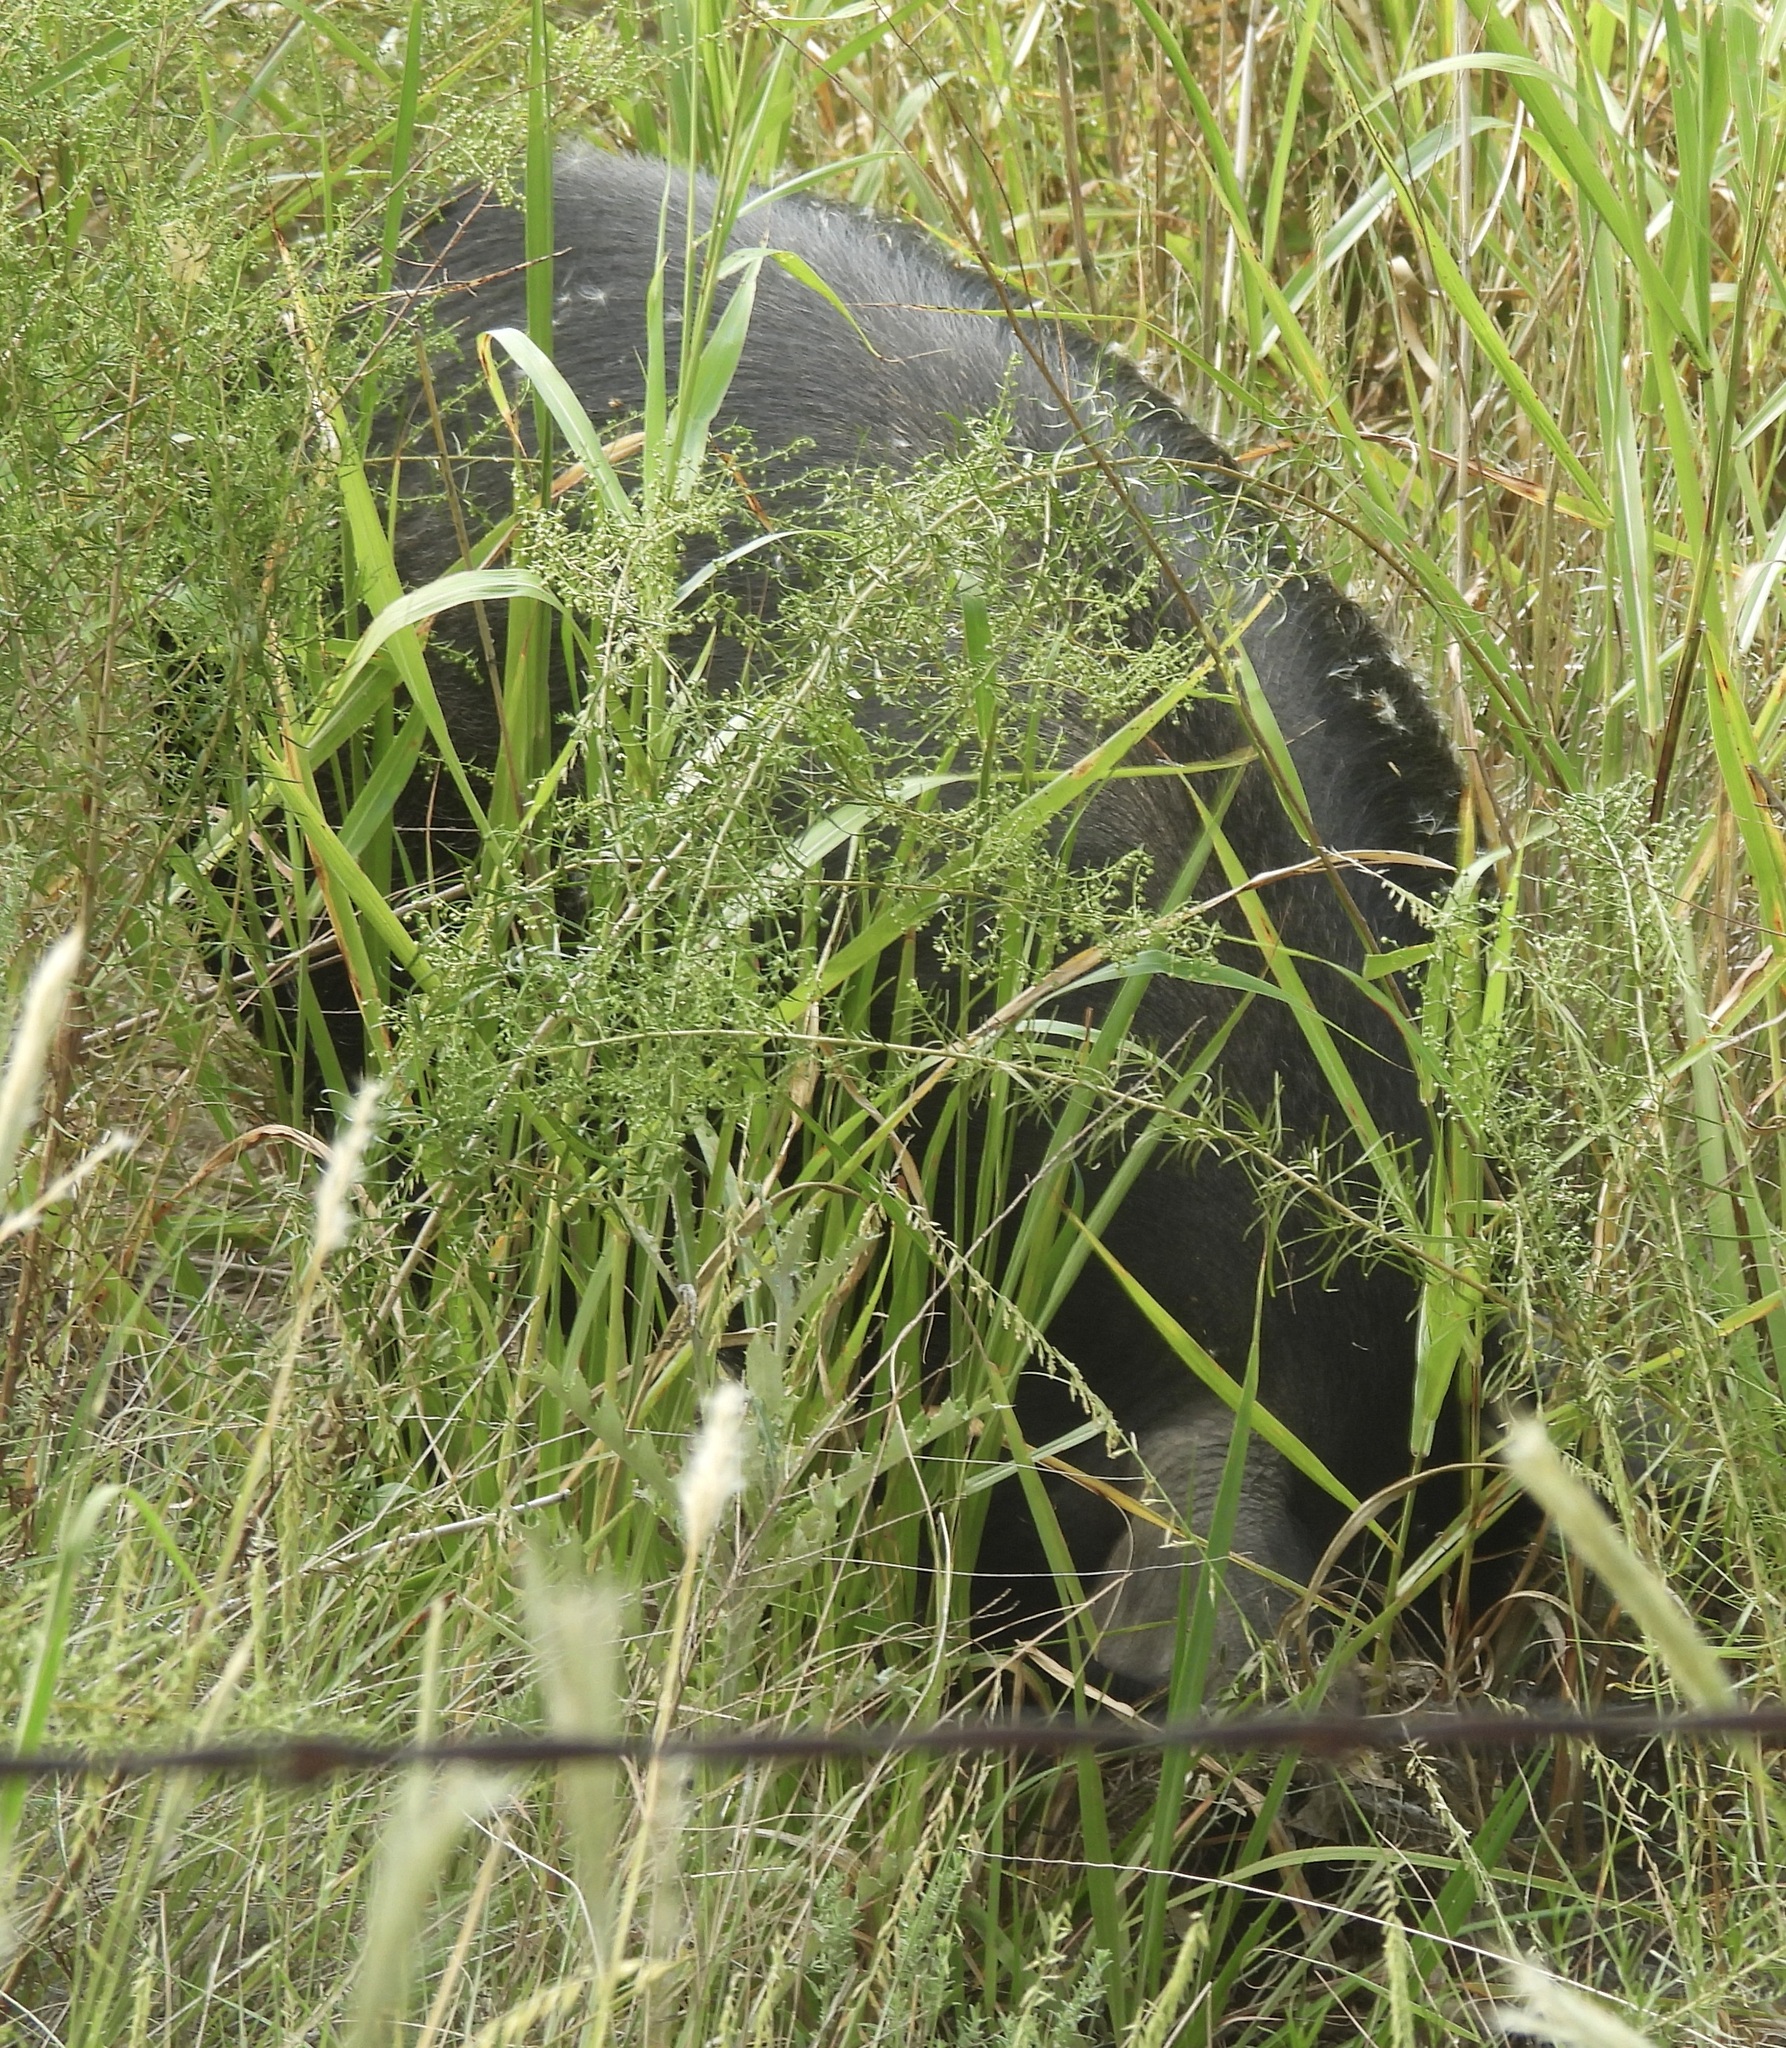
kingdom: Animalia
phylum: Chordata
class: Mammalia
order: Artiodactyla
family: Suidae
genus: Sus
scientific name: Sus scrofa
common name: Wild boar
